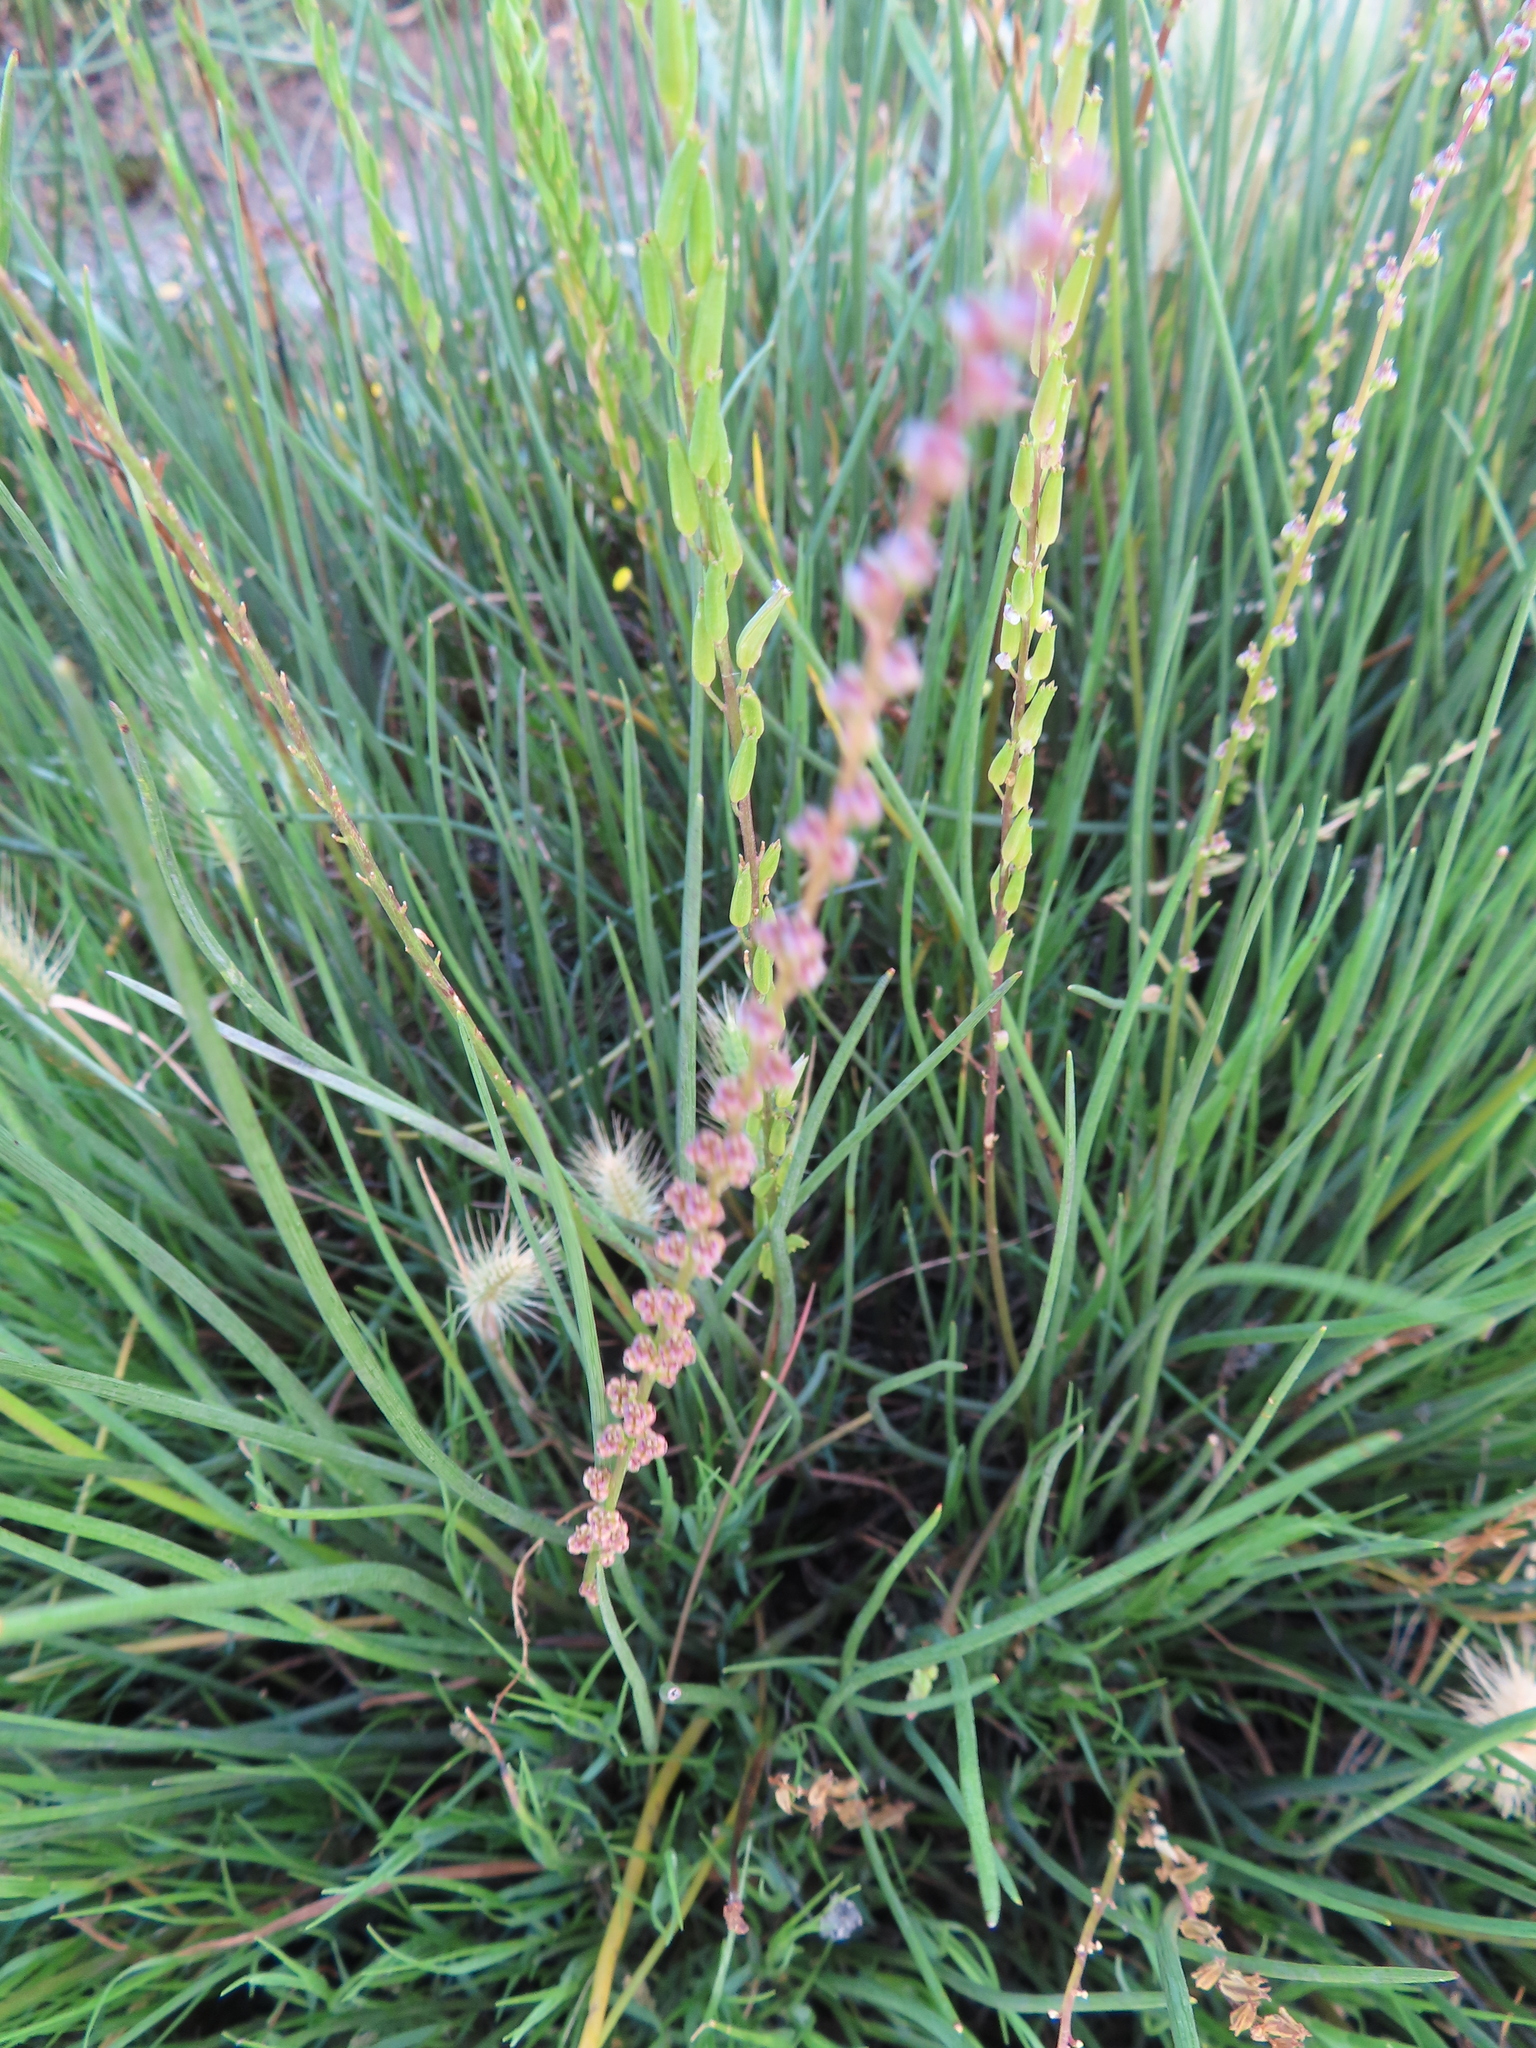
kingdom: Plantae
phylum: Tracheophyta
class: Liliopsida
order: Alismatales
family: Juncaginaceae
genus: Triglochin
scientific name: Triglochin bulbosa
